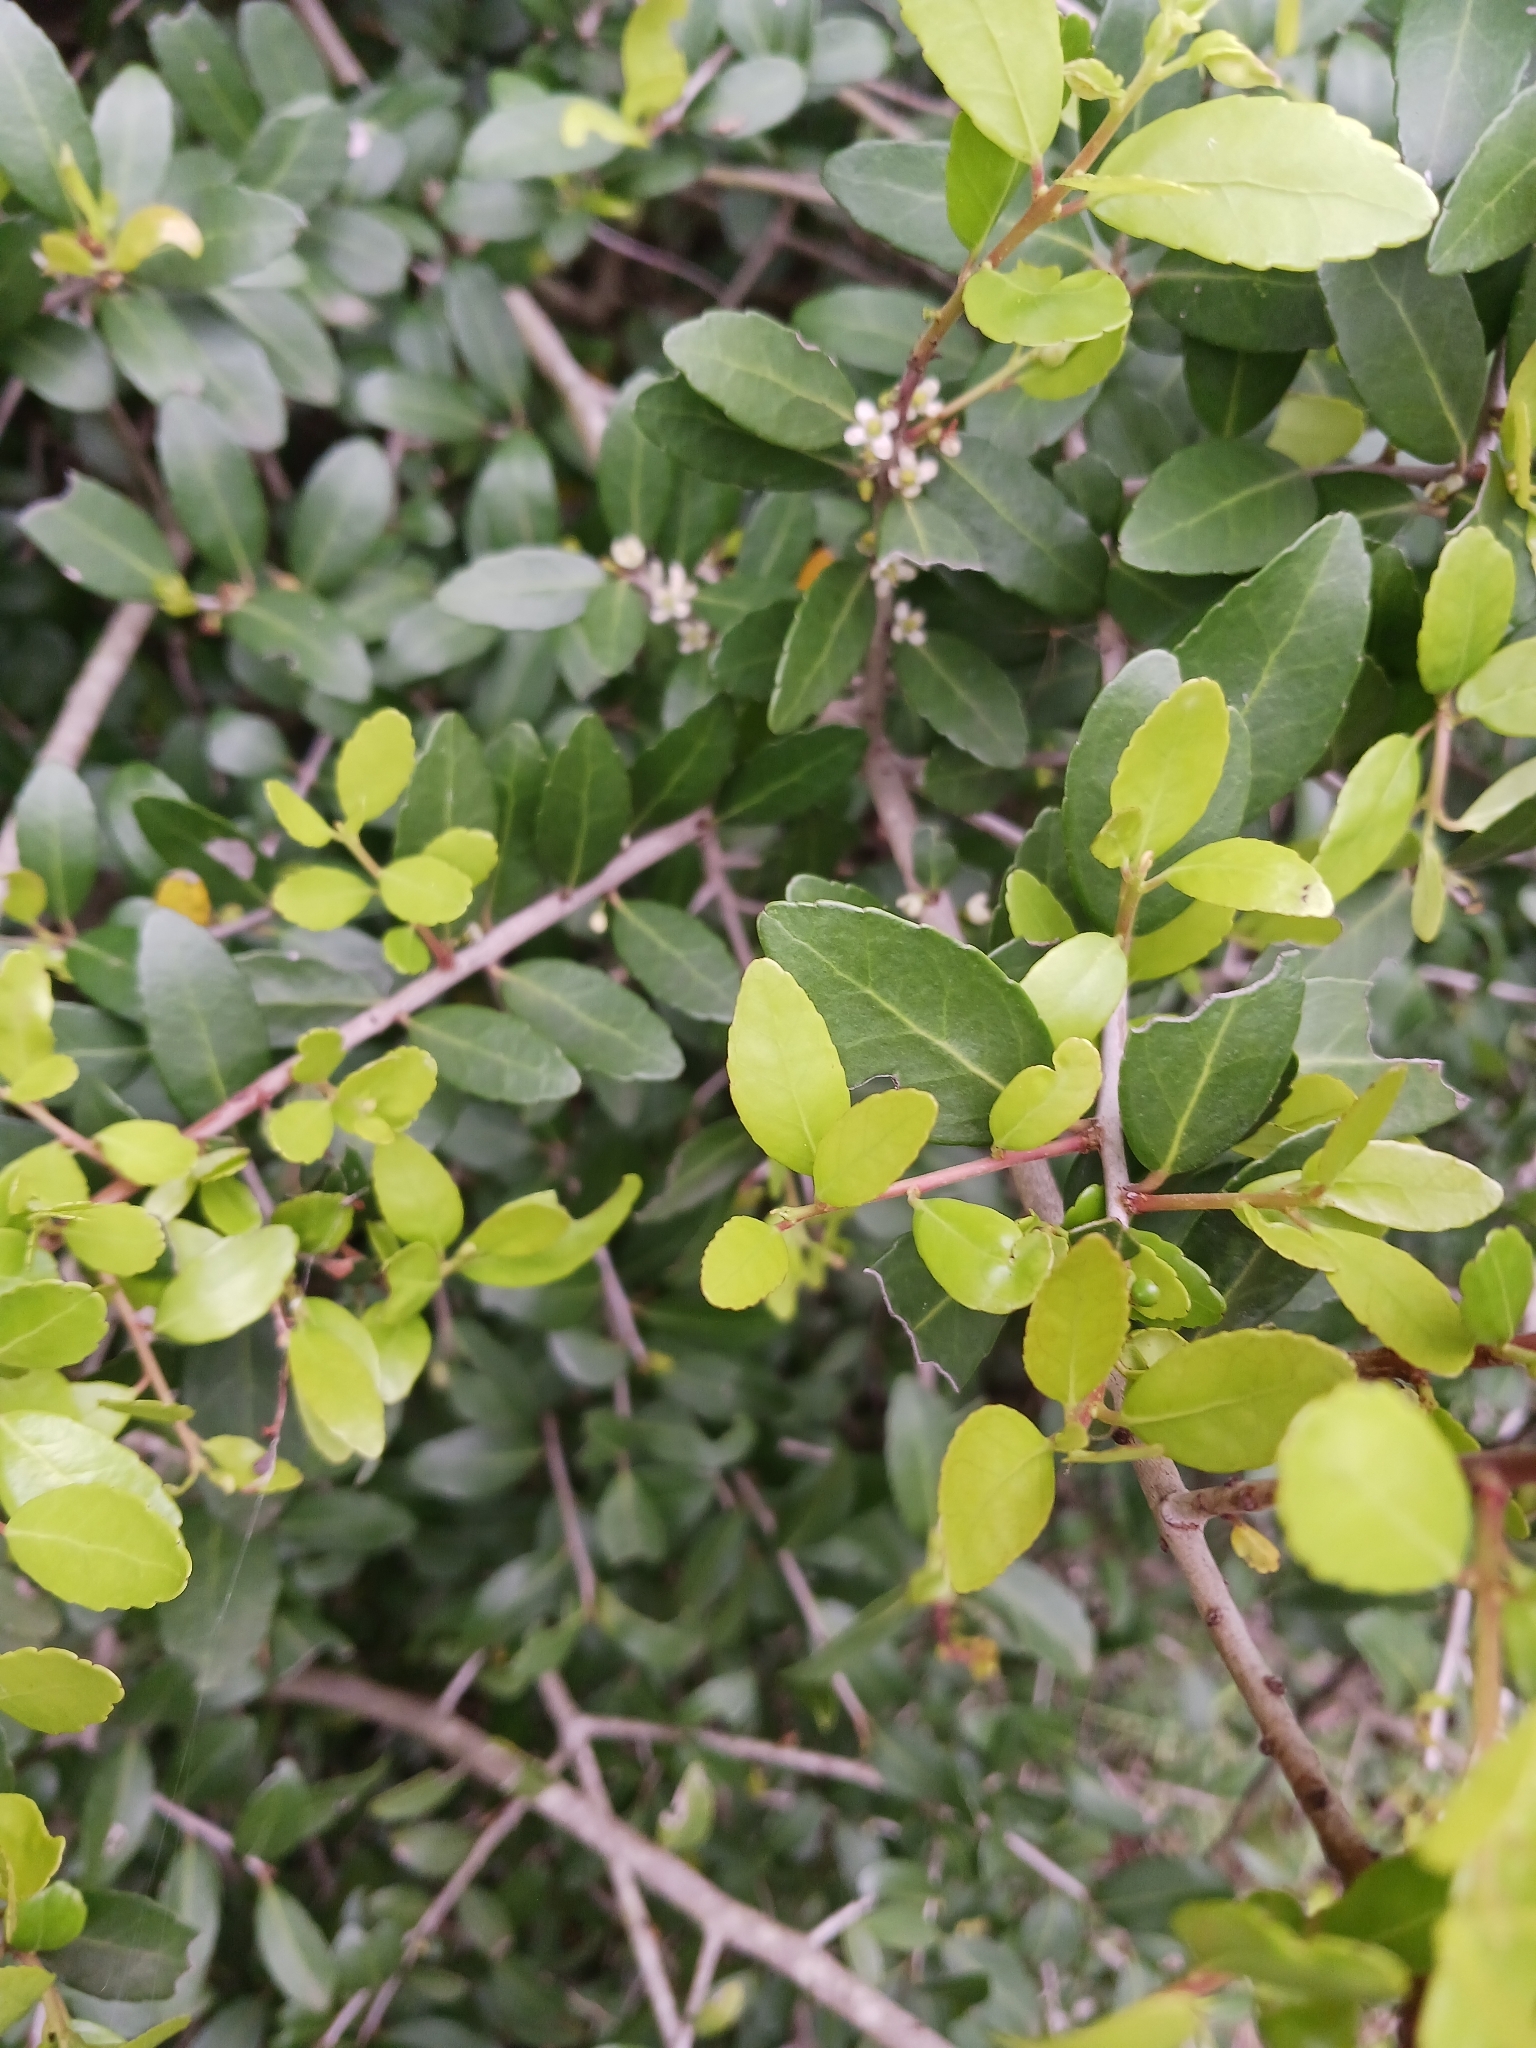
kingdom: Plantae
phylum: Tracheophyta
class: Magnoliopsida
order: Aquifoliales
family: Aquifoliaceae
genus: Ilex
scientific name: Ilex vomitoria
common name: Yaupon holly
